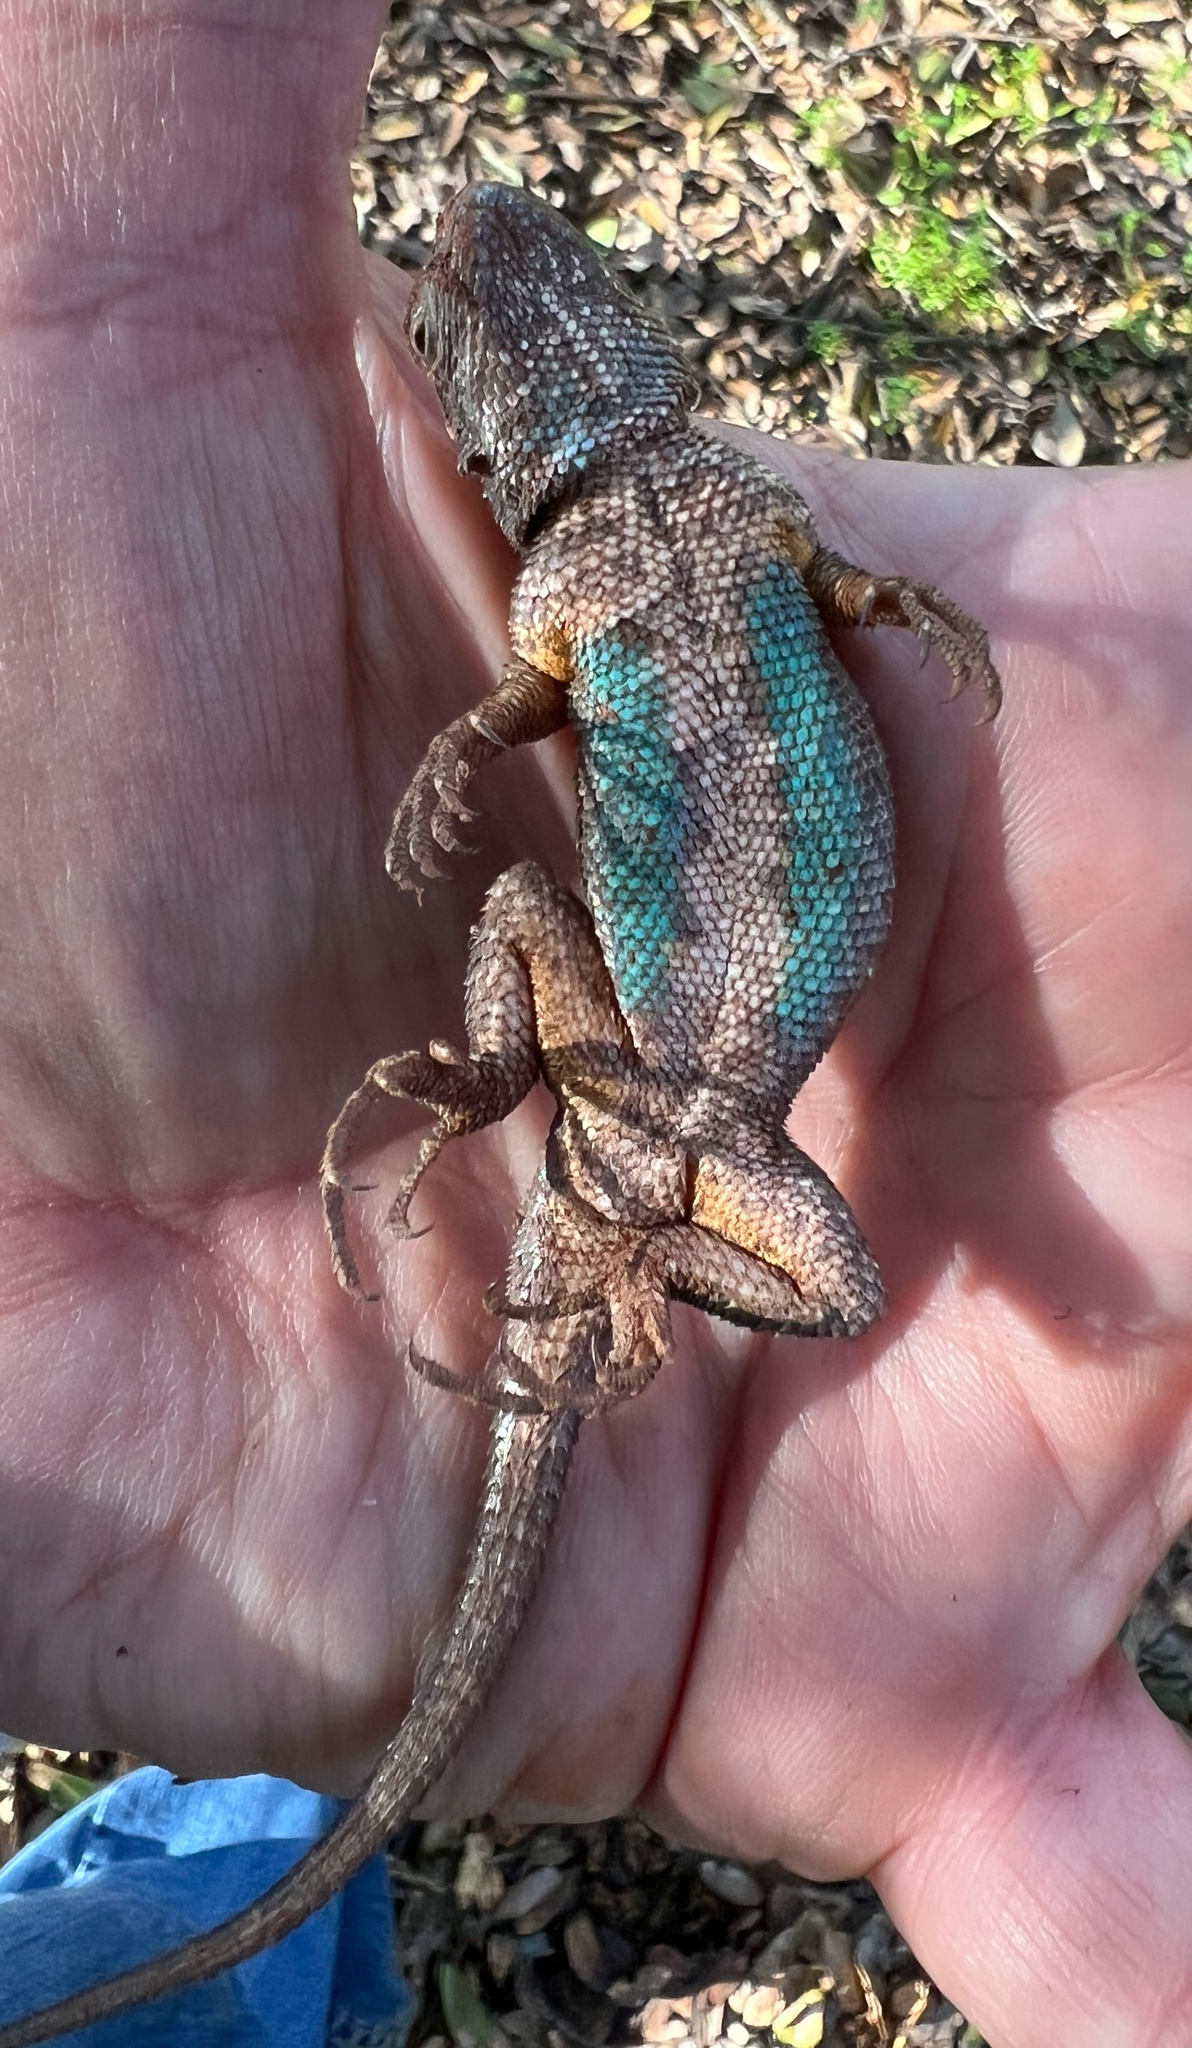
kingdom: Animalia
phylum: Chordata
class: Squamata
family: Phrynosomatidae
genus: Sceloporus
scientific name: Sceloporus occidentalis
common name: Western fence lizard
